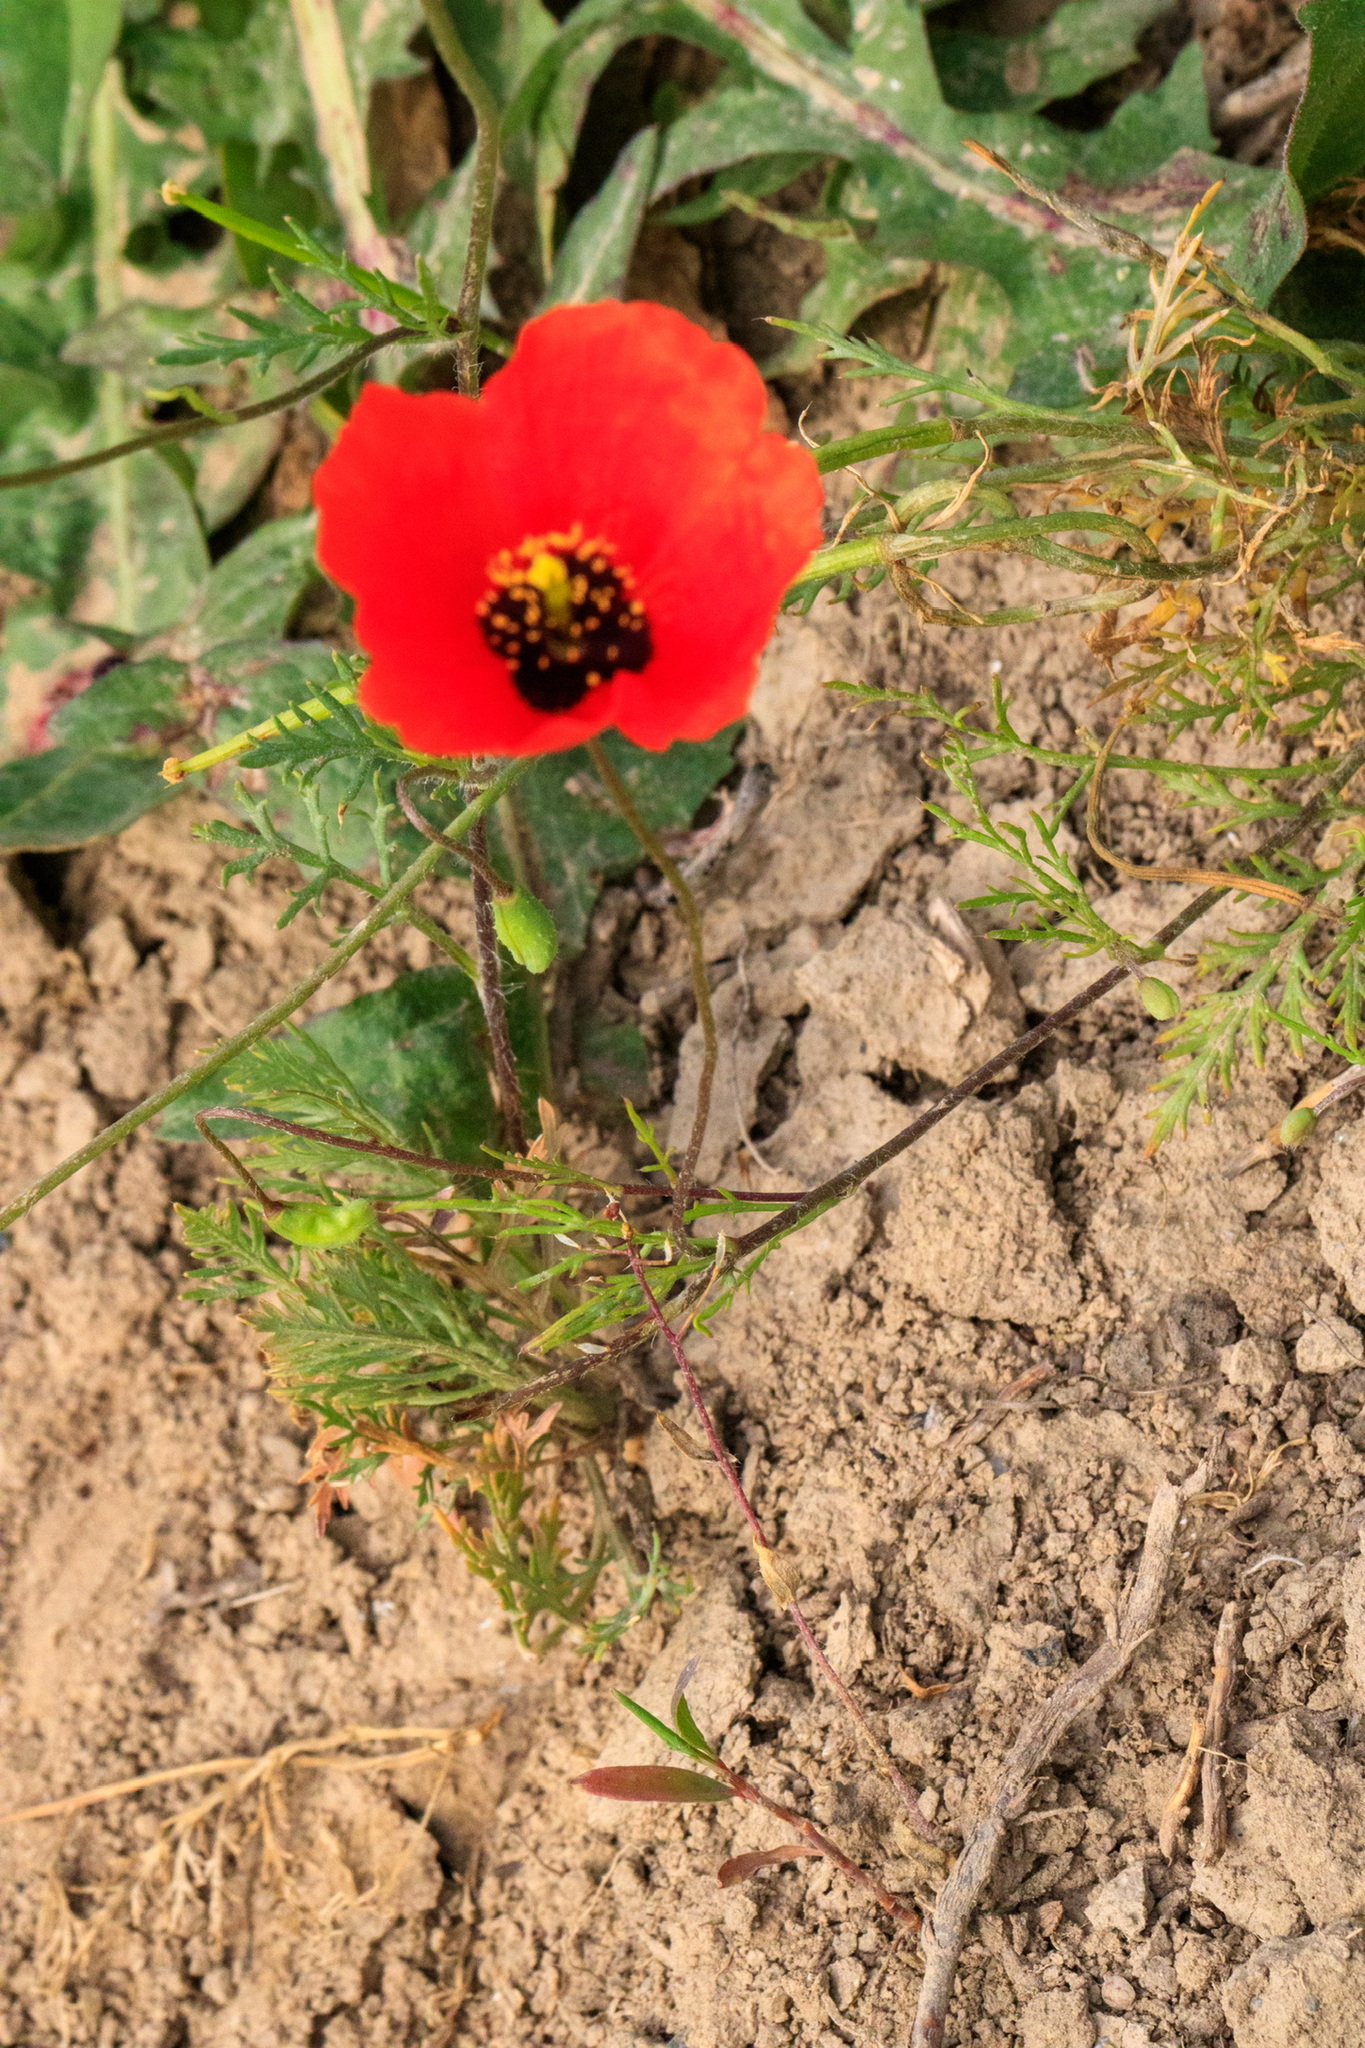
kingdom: Plantae
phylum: Tracheophyta
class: Magnoliopsida
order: Ranunculales
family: Papaveraceae
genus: Roemeria
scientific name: Roemeria refracta
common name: Spotted asian poppy
